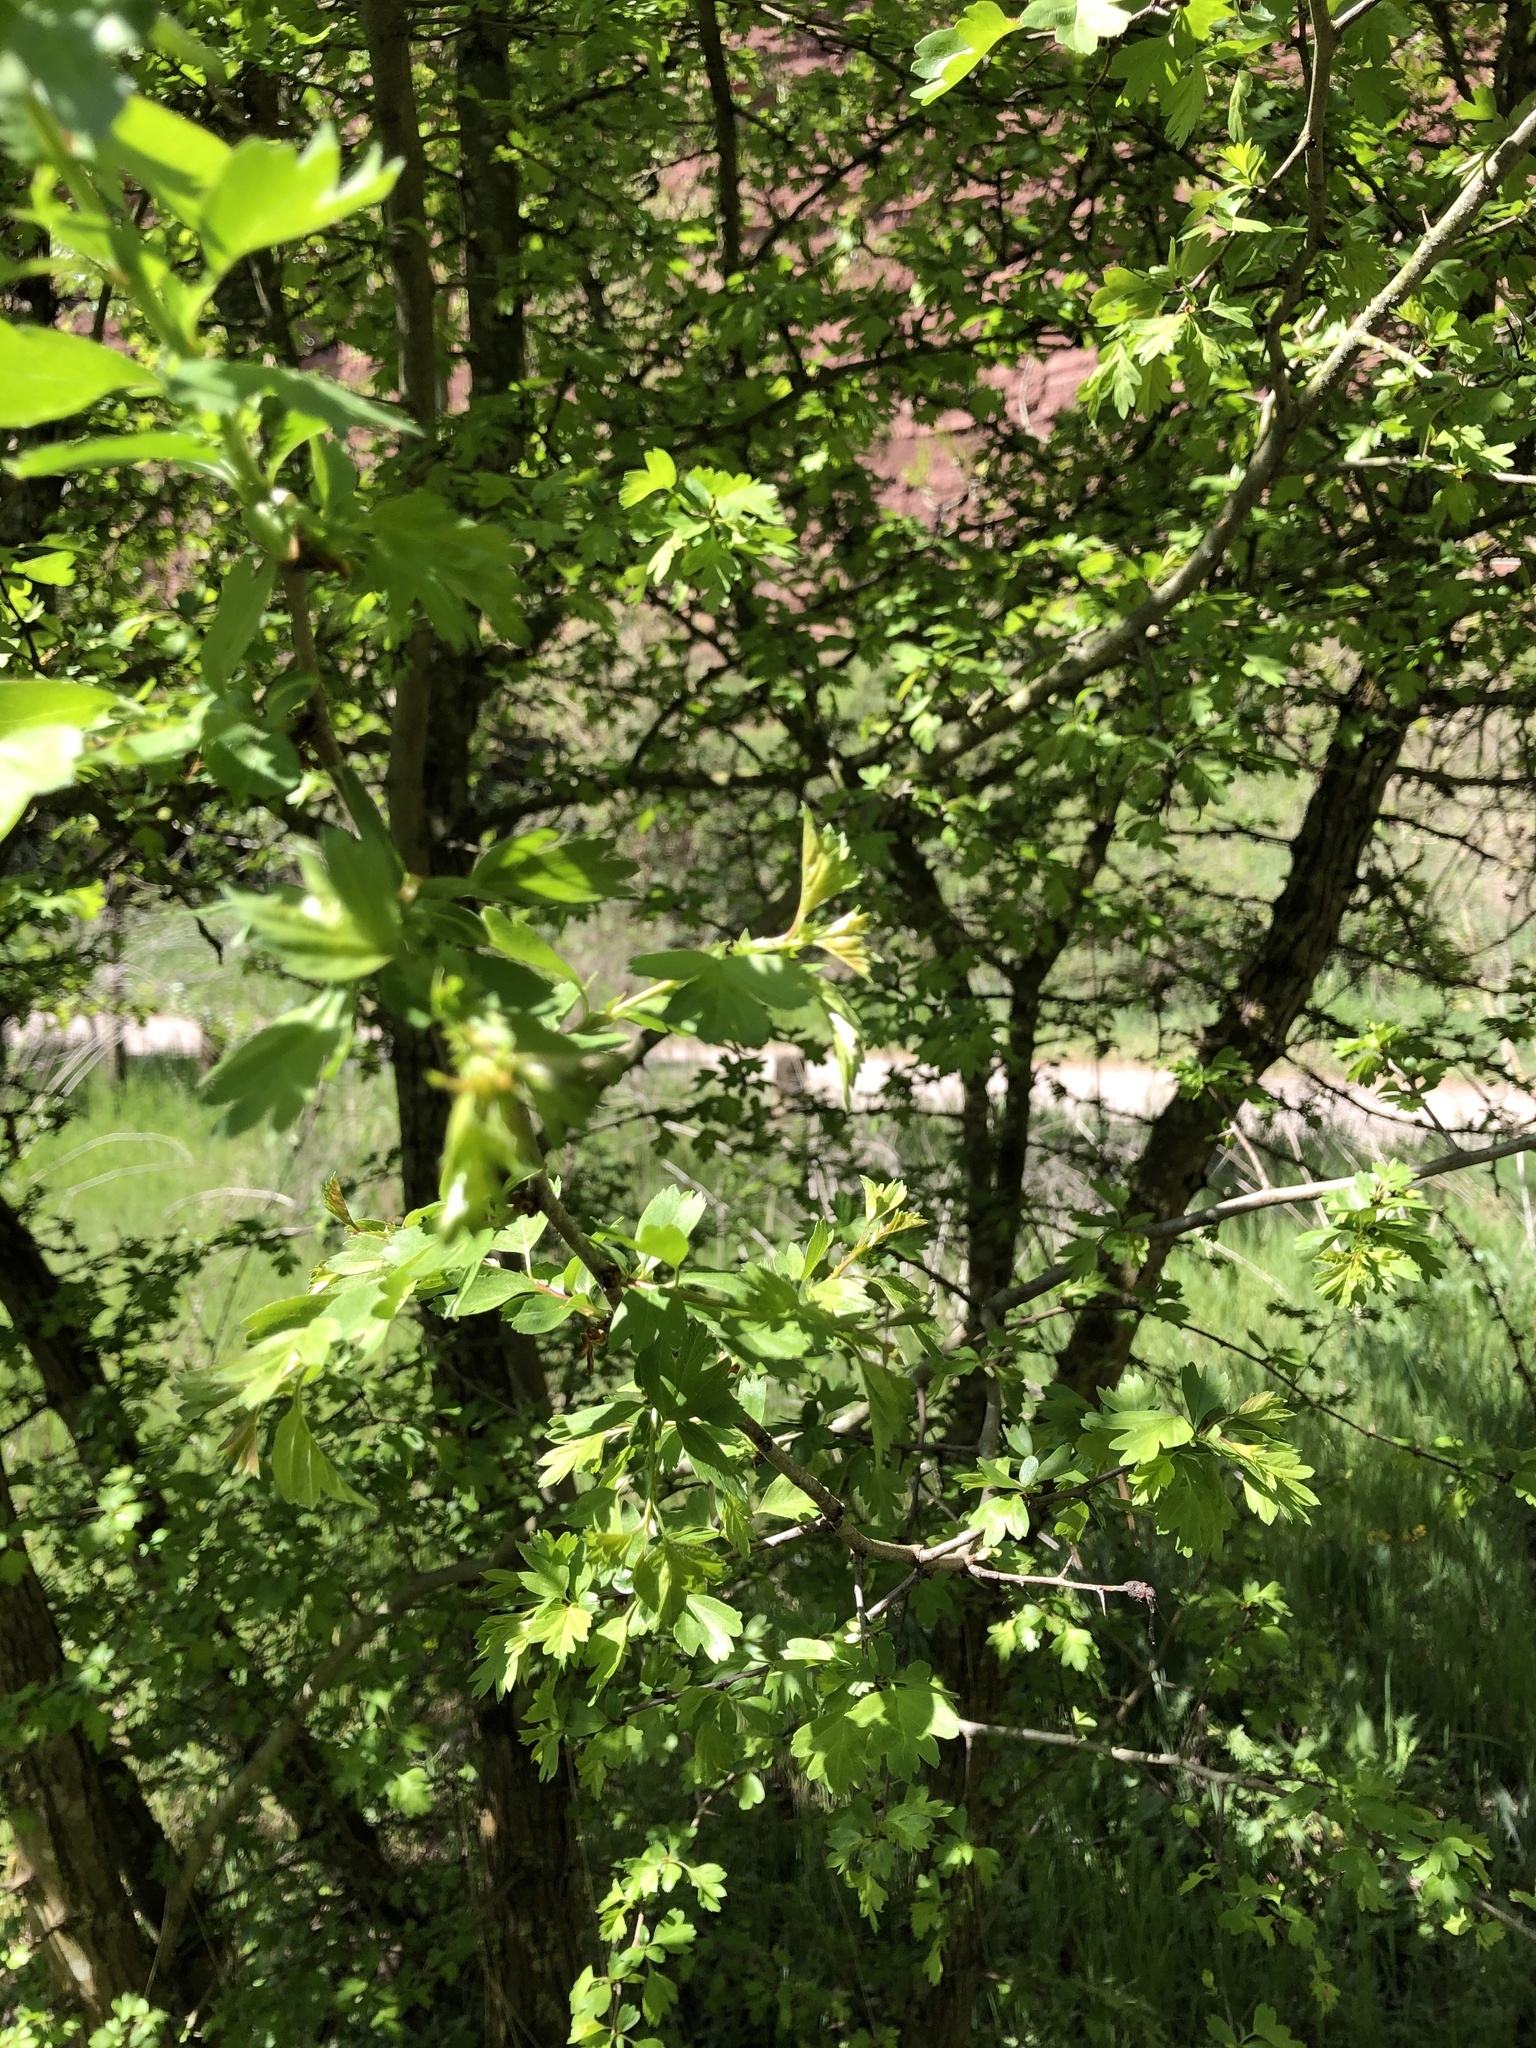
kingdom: Plantae
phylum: Tracheophyta
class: Magnoliopsida
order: Rosales
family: Rosaceae
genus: Crataegus
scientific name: Crataegus monogyna
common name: Hawthorn
